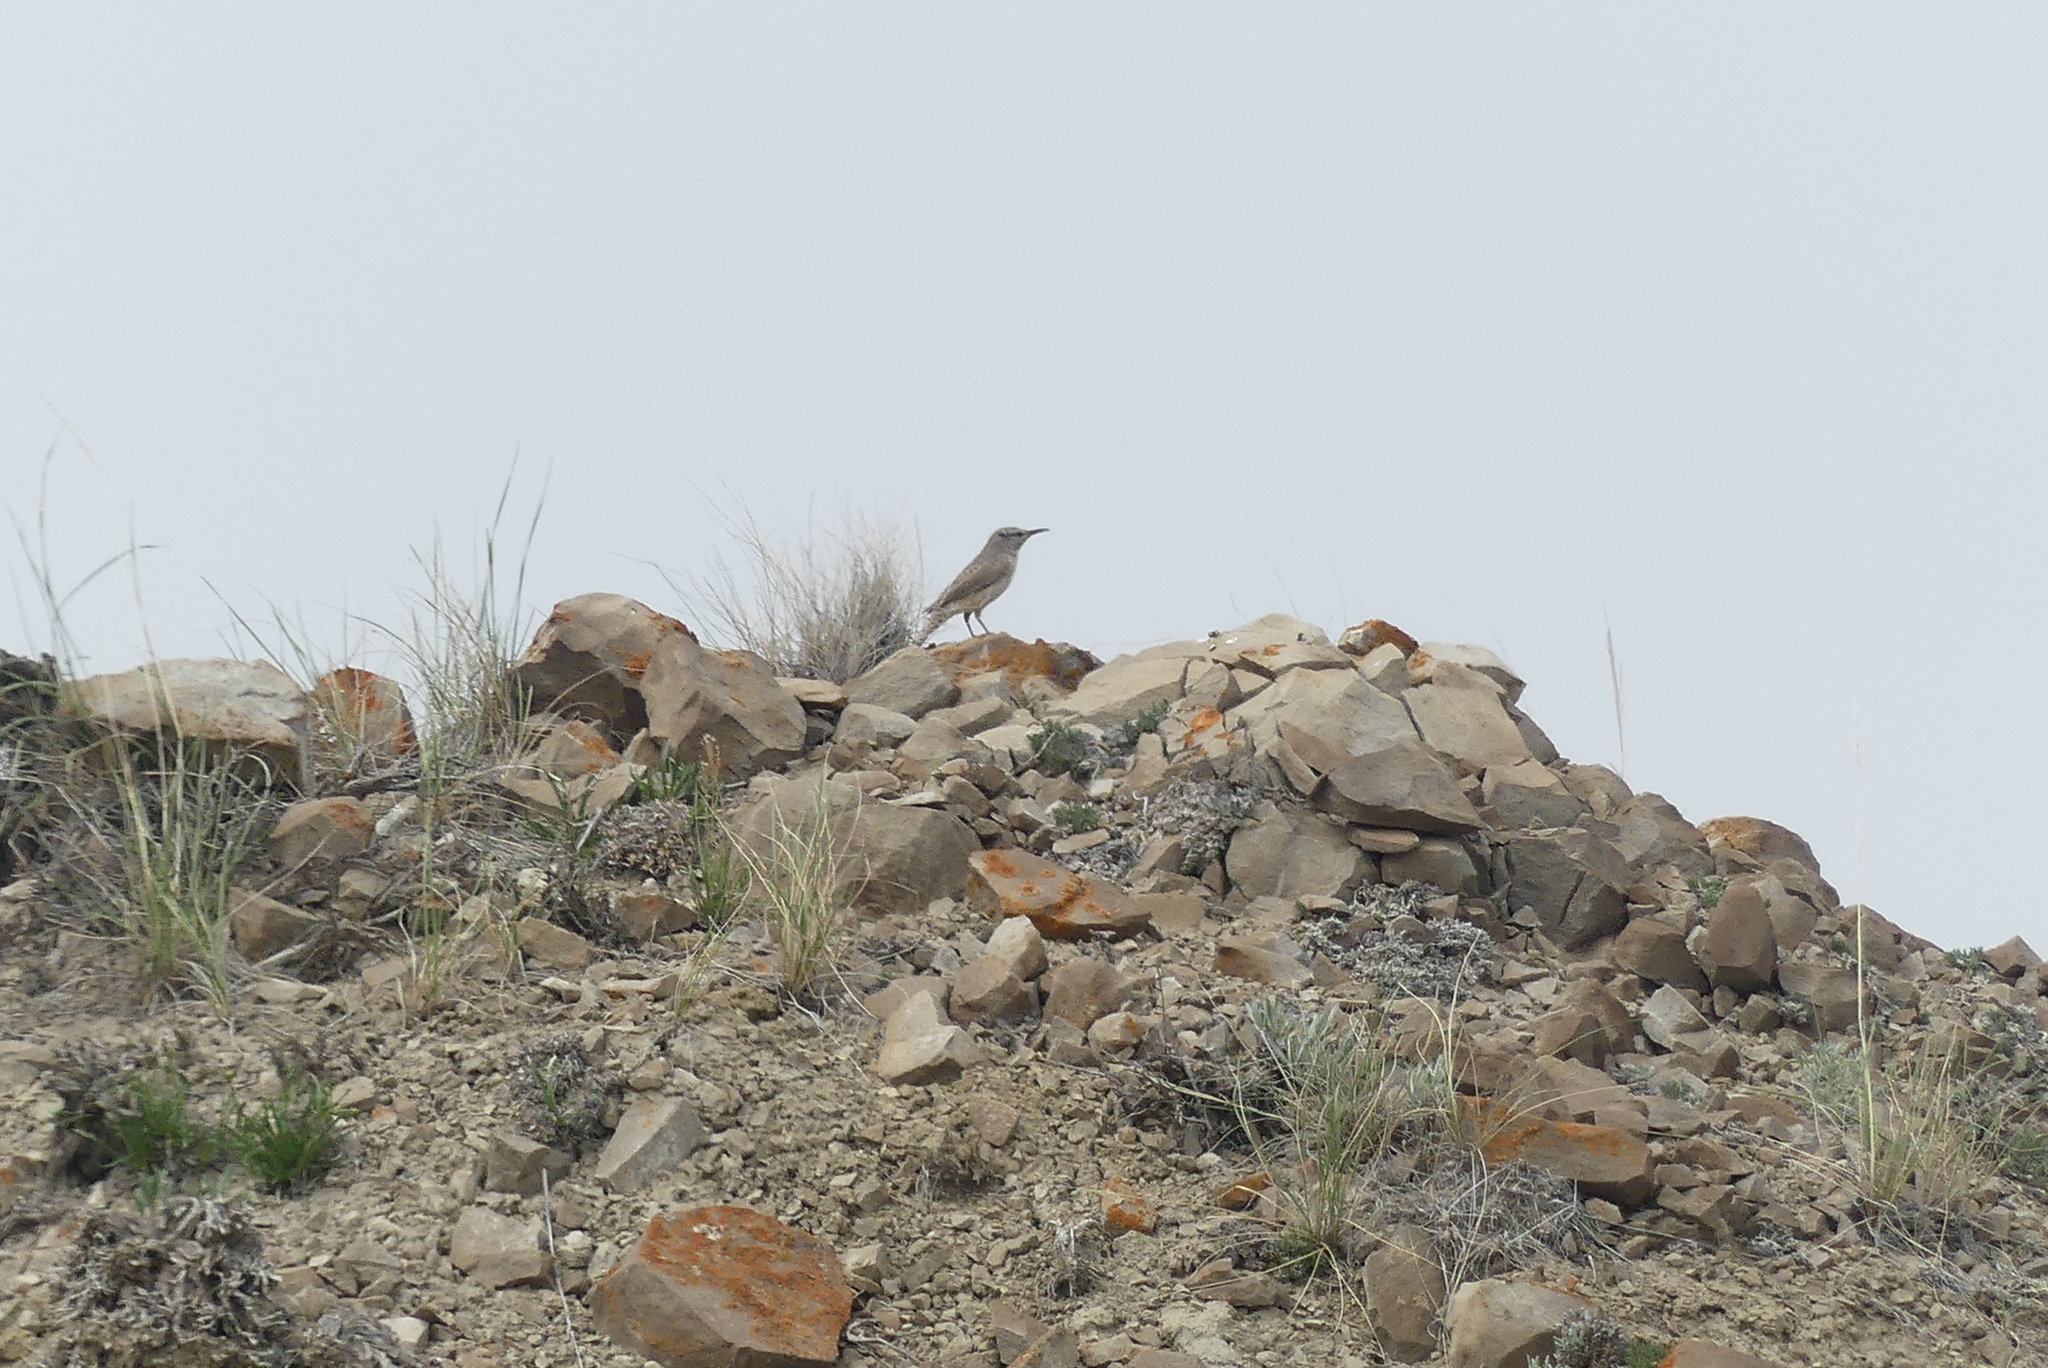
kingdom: Animalia
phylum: Chordata
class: Aves
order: Passeriformes
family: Troglodytidae
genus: Salpinctes
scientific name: Salpinctes obsoletus
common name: Rock wren
